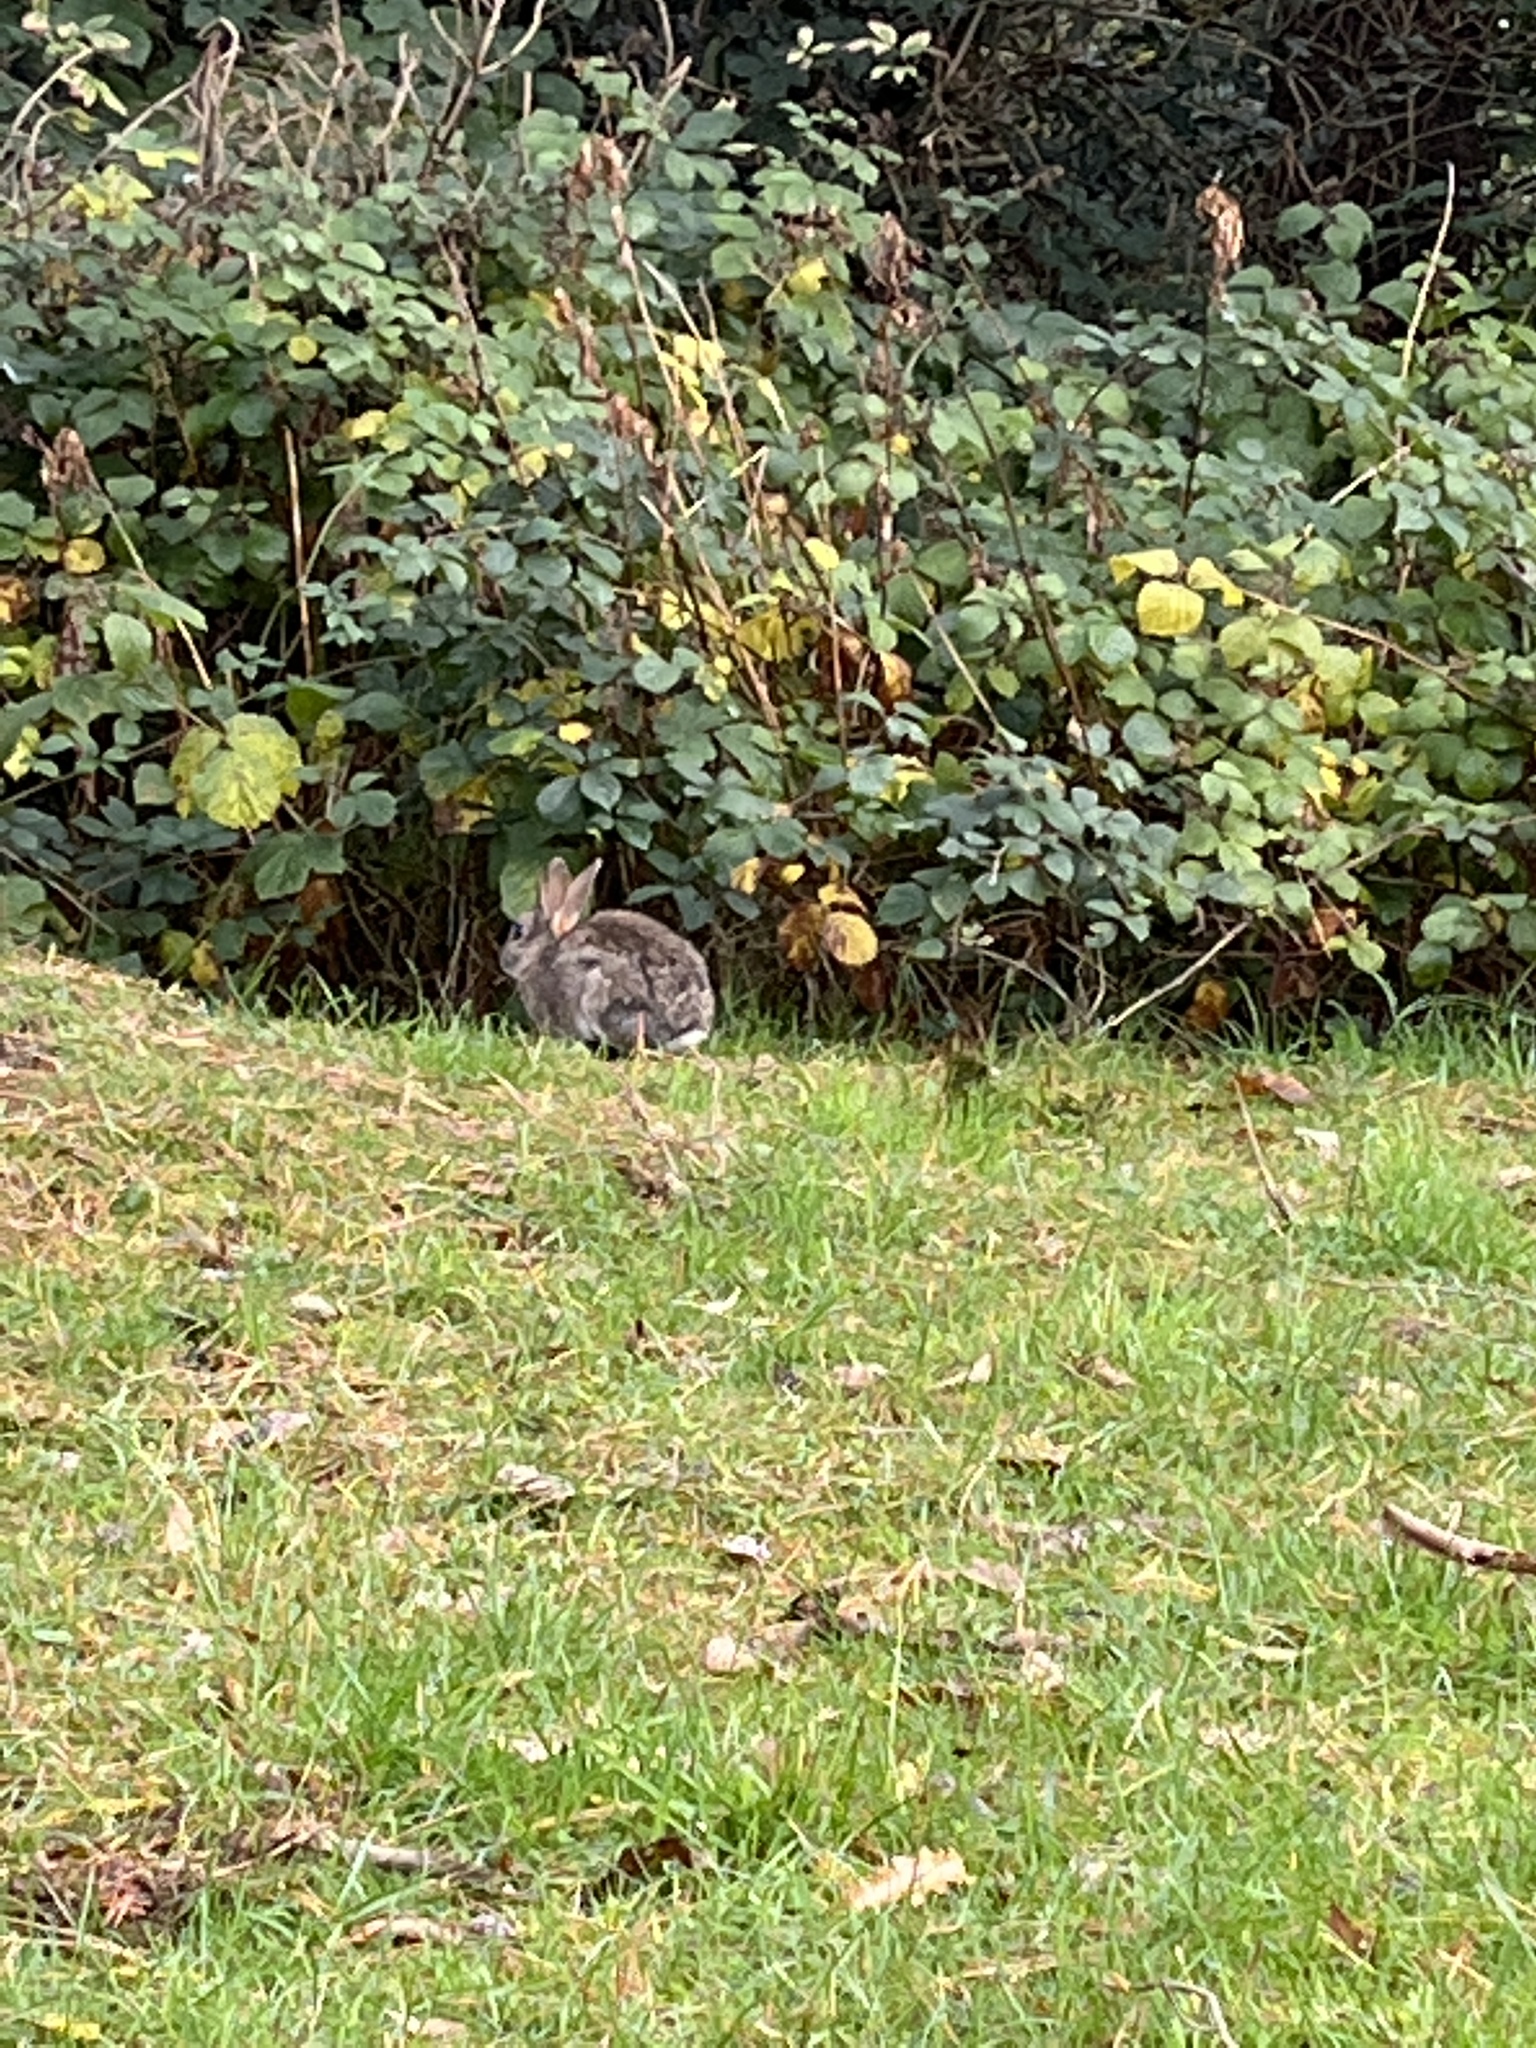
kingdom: Animalia
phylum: Chordata
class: Mammalia
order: Lagomorpha
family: Leporidae
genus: Oryctolagus
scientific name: Oryctolagus cuniculus
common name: European rabbit
